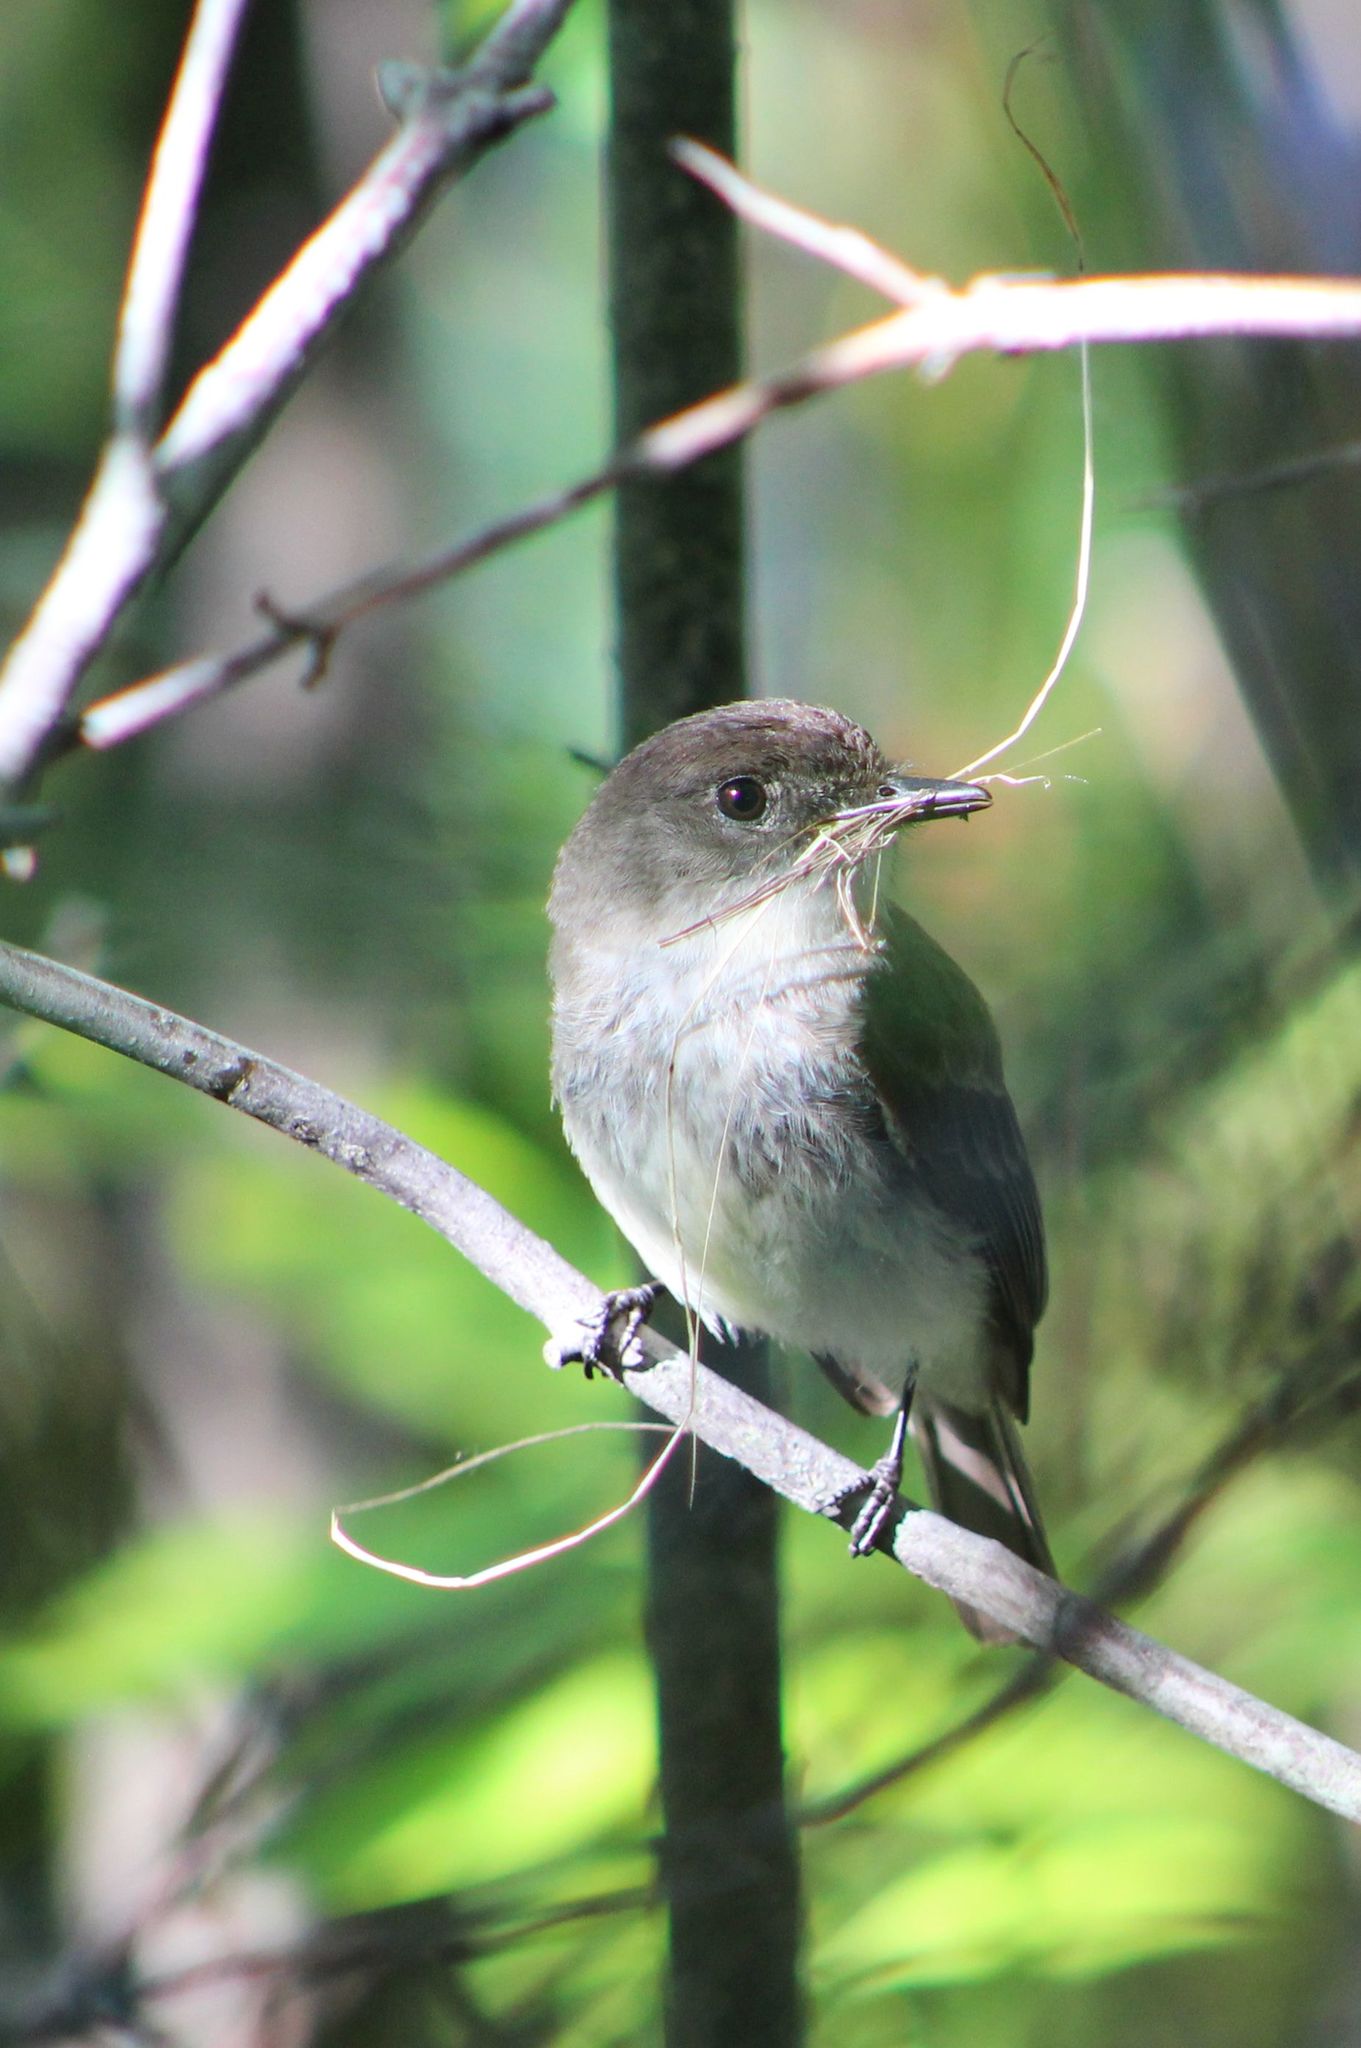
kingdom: Animalia
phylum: Chordata
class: Aves
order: Passeriformes
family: Tyrannidae
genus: Sayornis
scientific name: Sayornis phoebe
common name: Eastern phoebe
